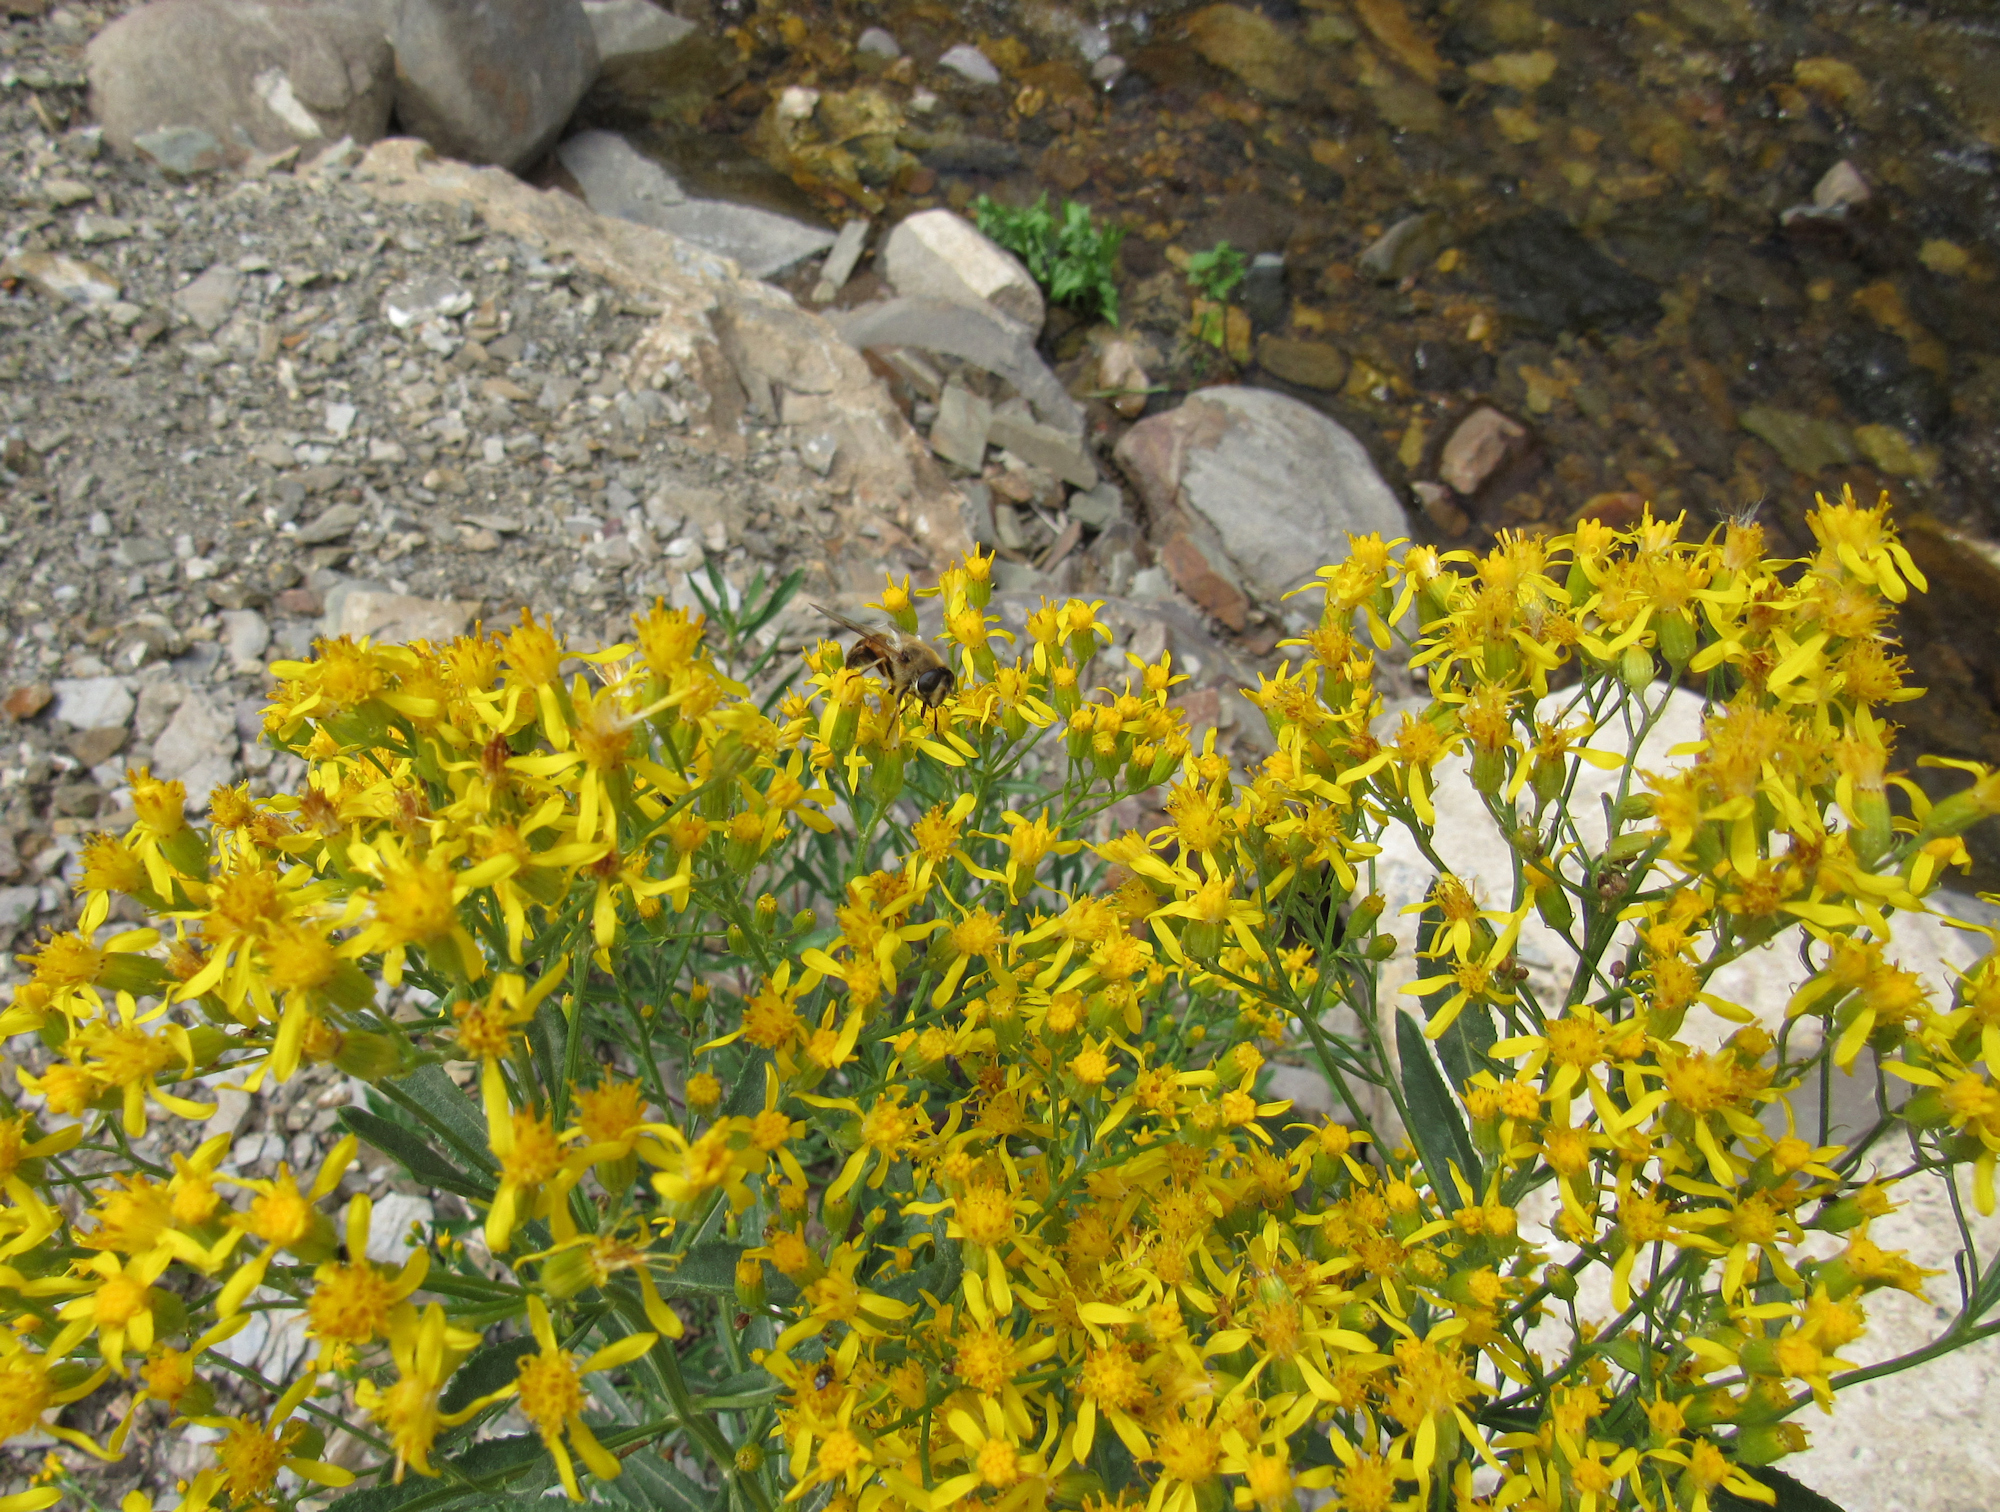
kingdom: Animalia
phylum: Arthropoda
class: Insecta
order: Diptera
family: Syrphidae
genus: Eristalis
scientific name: Eristalis tenax
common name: Drone fly
